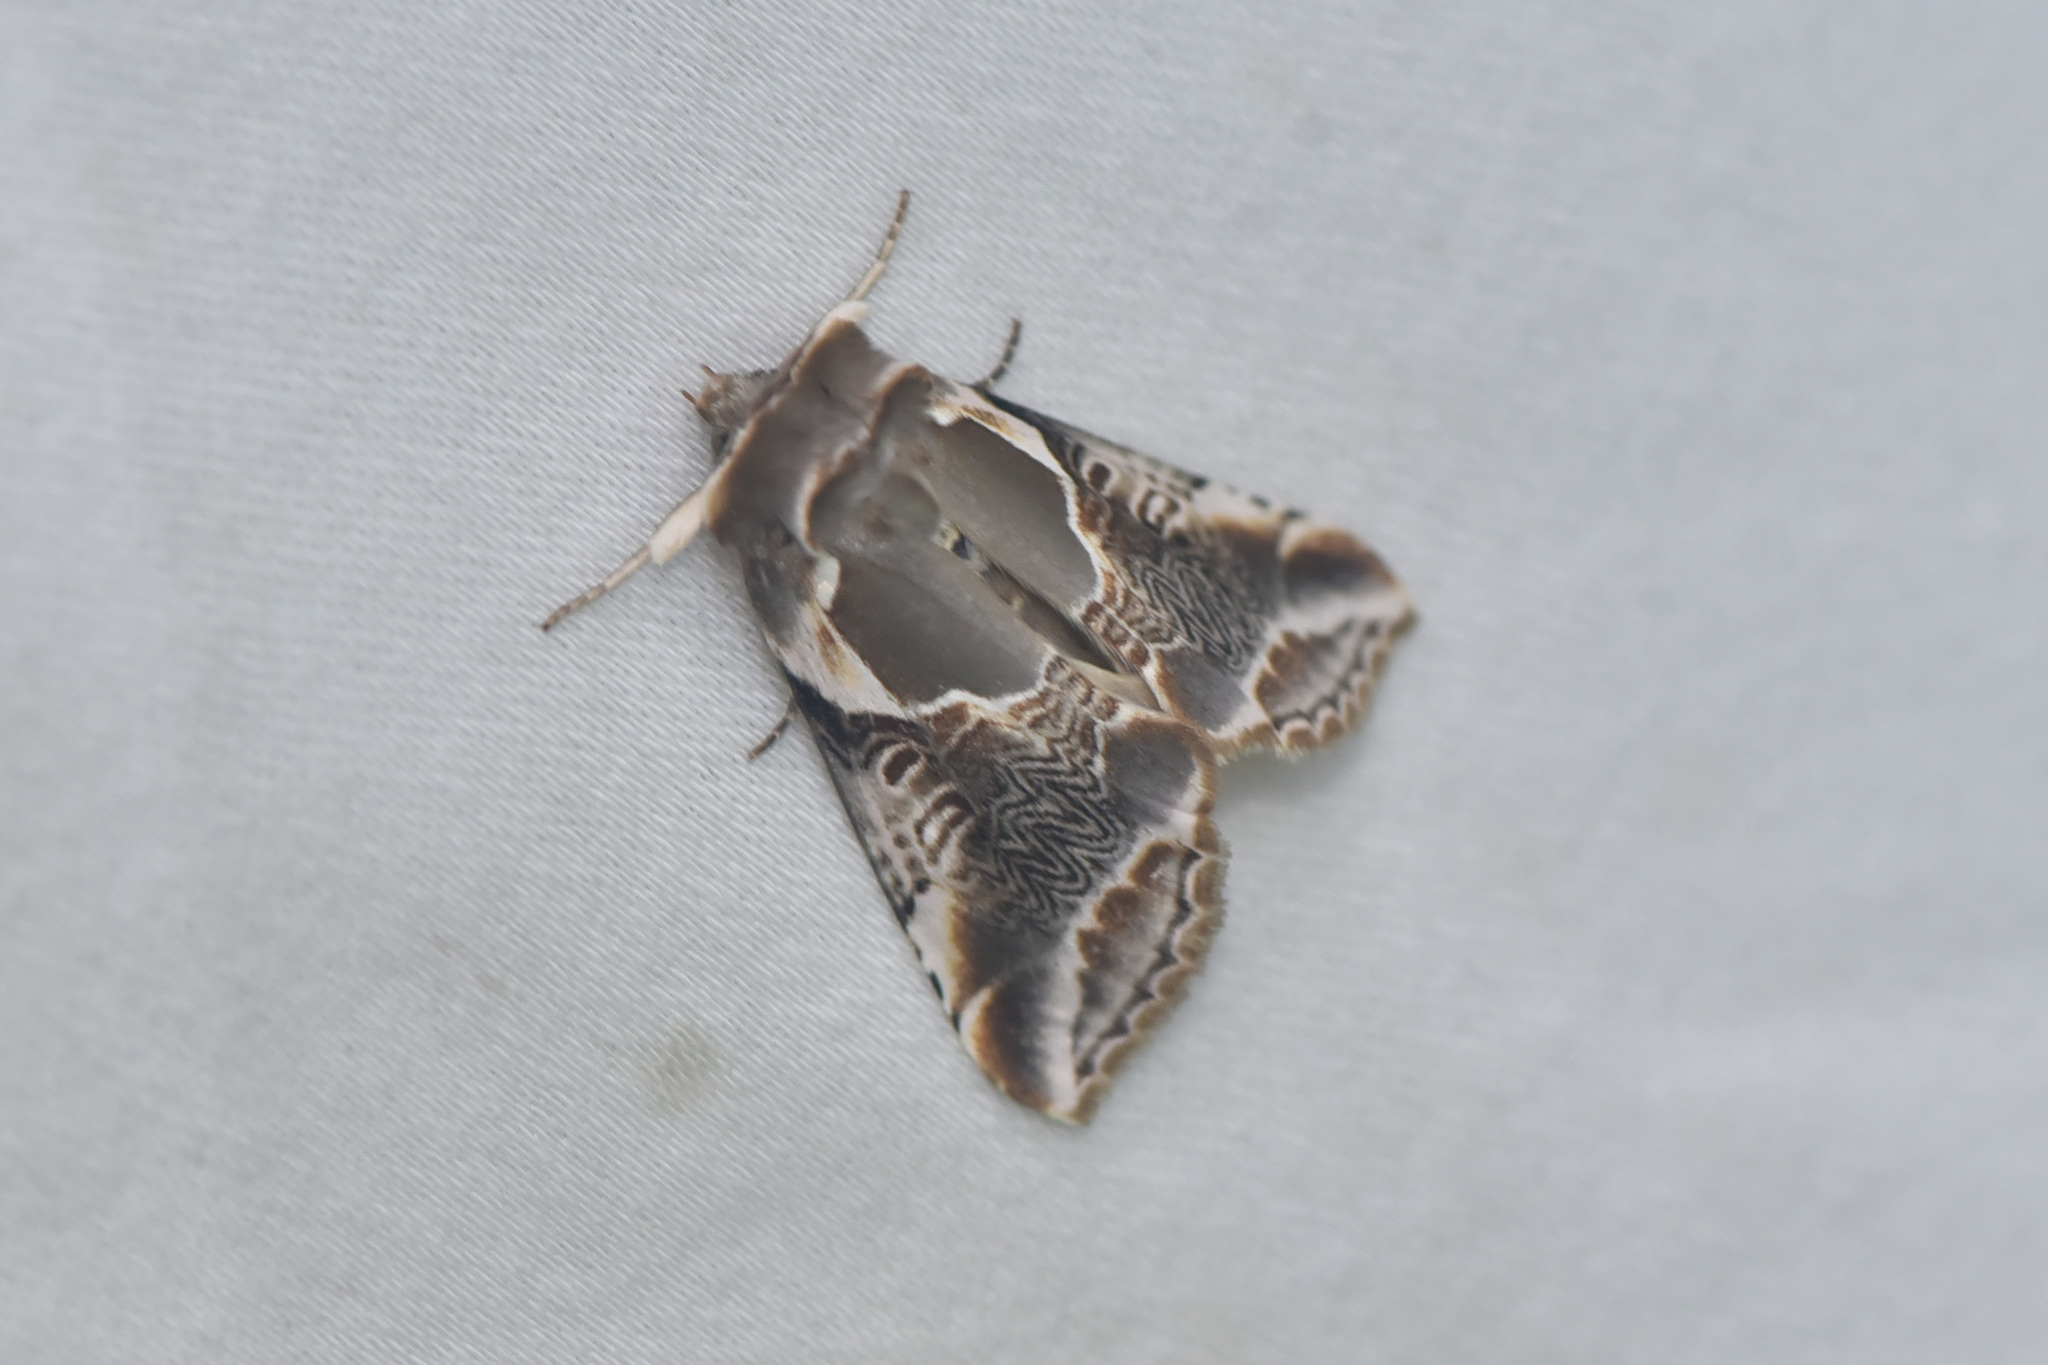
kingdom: Animalia
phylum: Arthropoda
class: Insecta
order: Lepidoptera
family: Drepanidae
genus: Habrosyne
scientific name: Habrosyne scripta
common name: Lettered habrosyne moth
